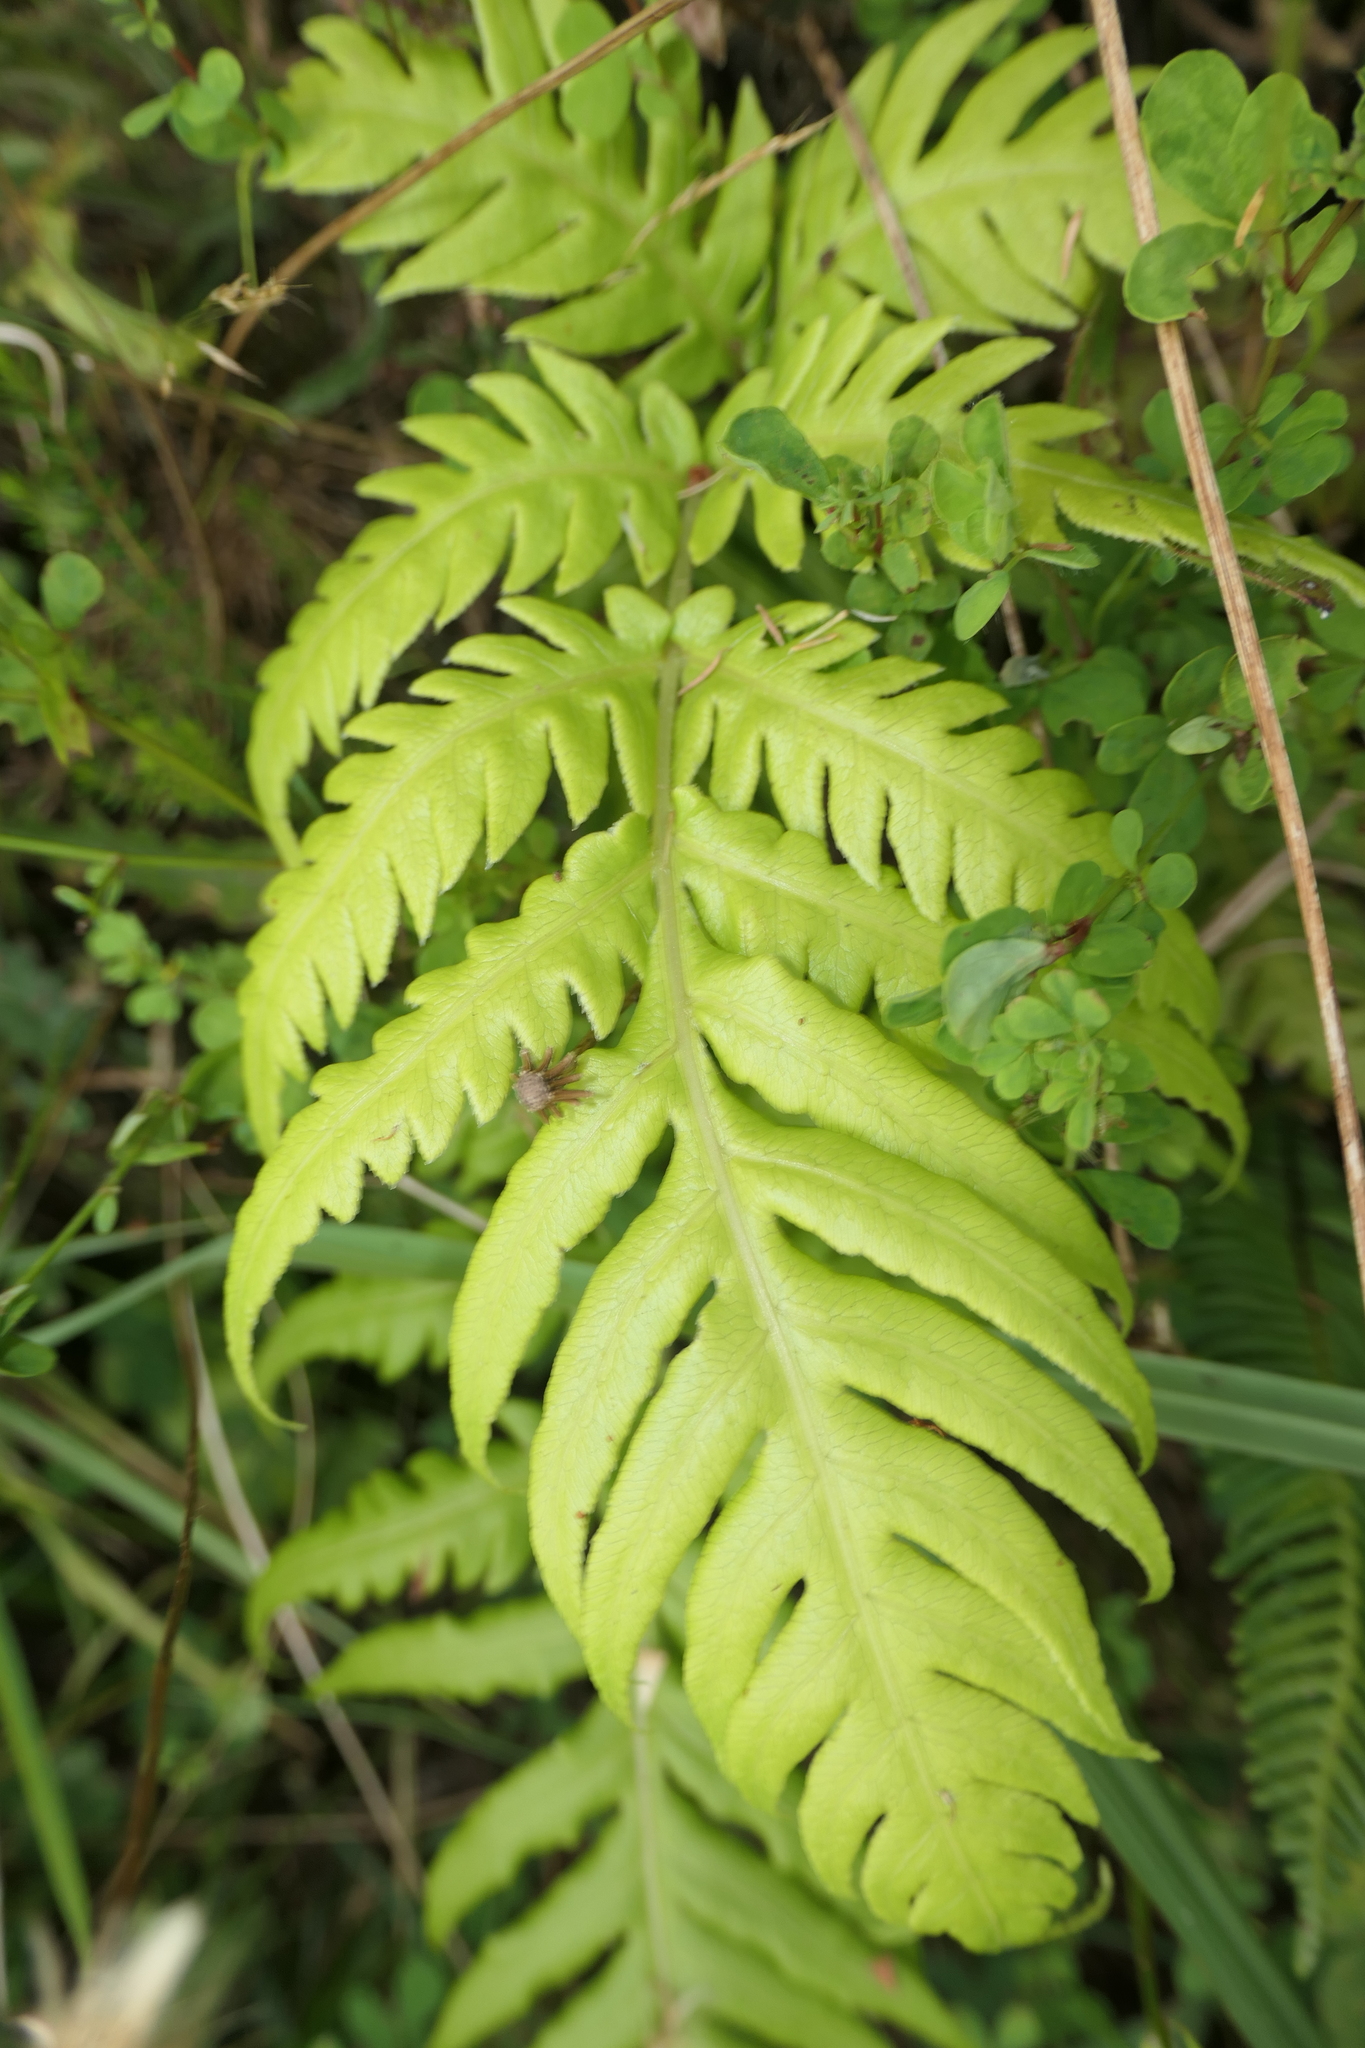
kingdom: Plantae
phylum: Tracheophyta
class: Polypodiopsida
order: Polypodiales
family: Blechnaceae
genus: Woodwardia
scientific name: Woodwardia radicans
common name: Rooting chainfern
